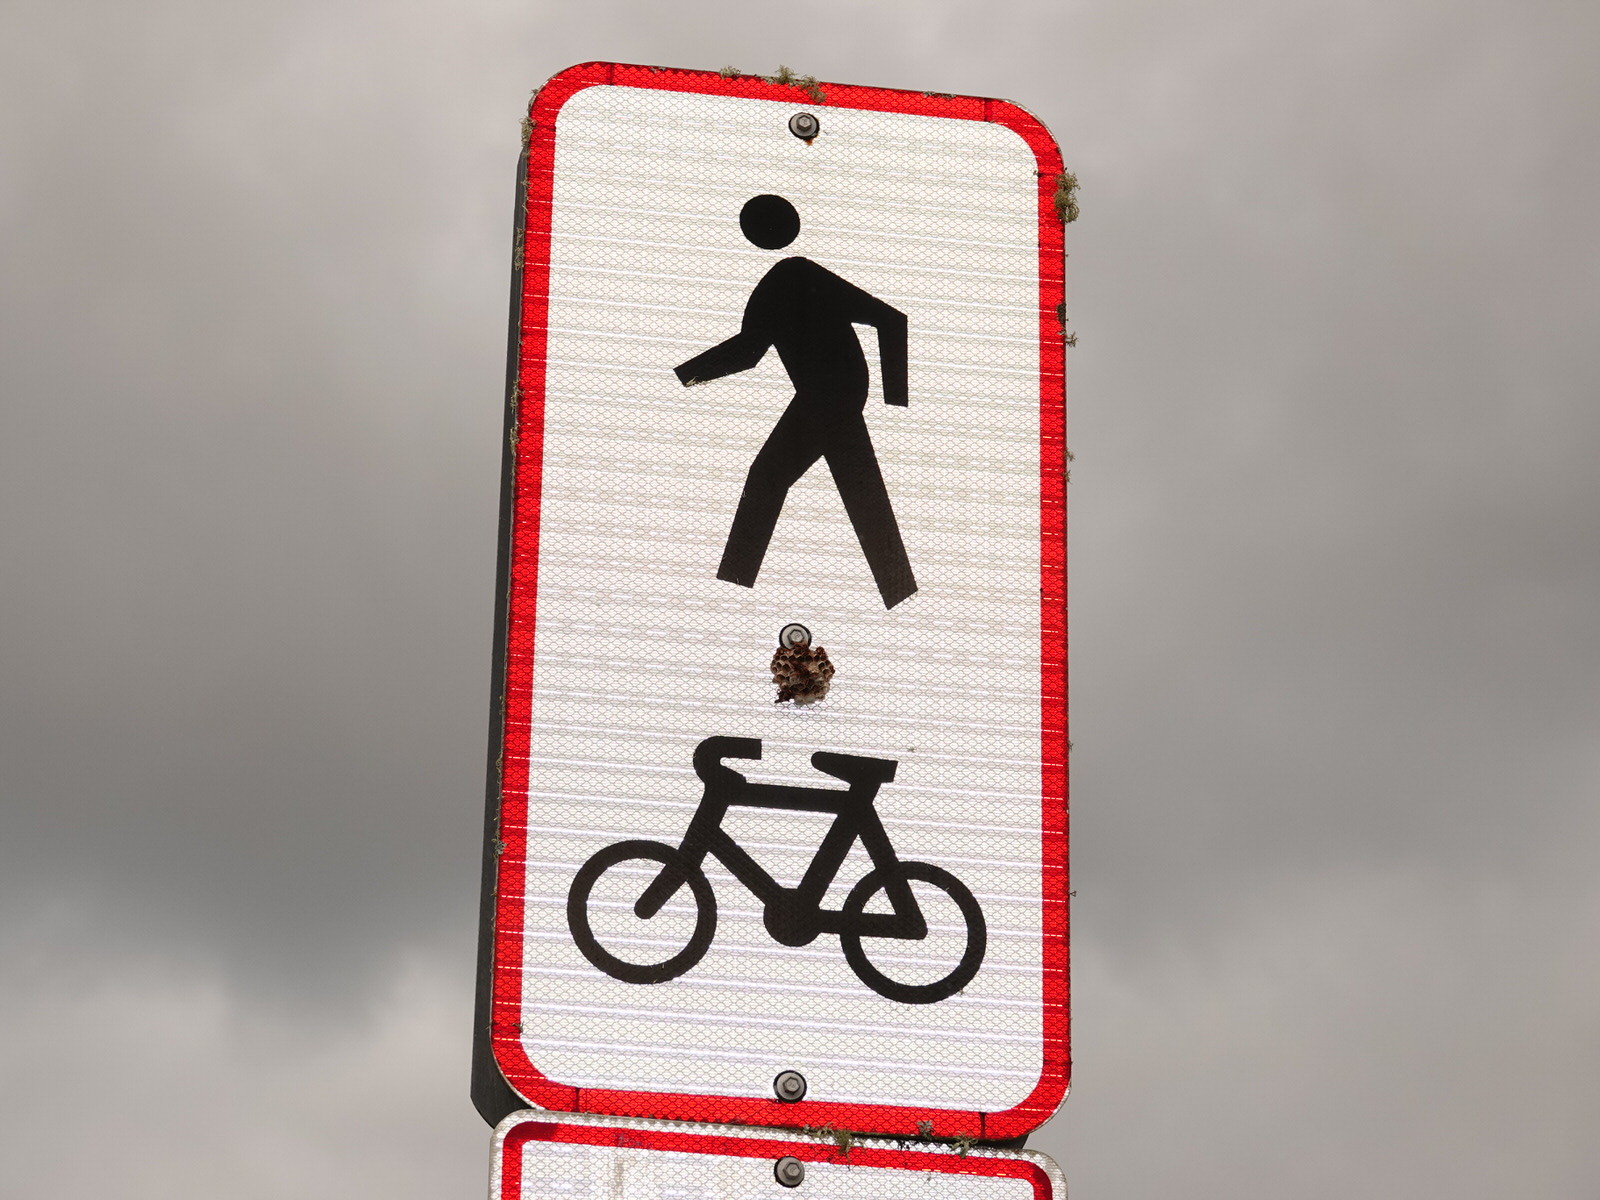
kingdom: Animalia
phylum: Arthropoda
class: Insecta
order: Hymenoptera
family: Eumenidae
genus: Polistes
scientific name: Polistes humilis
